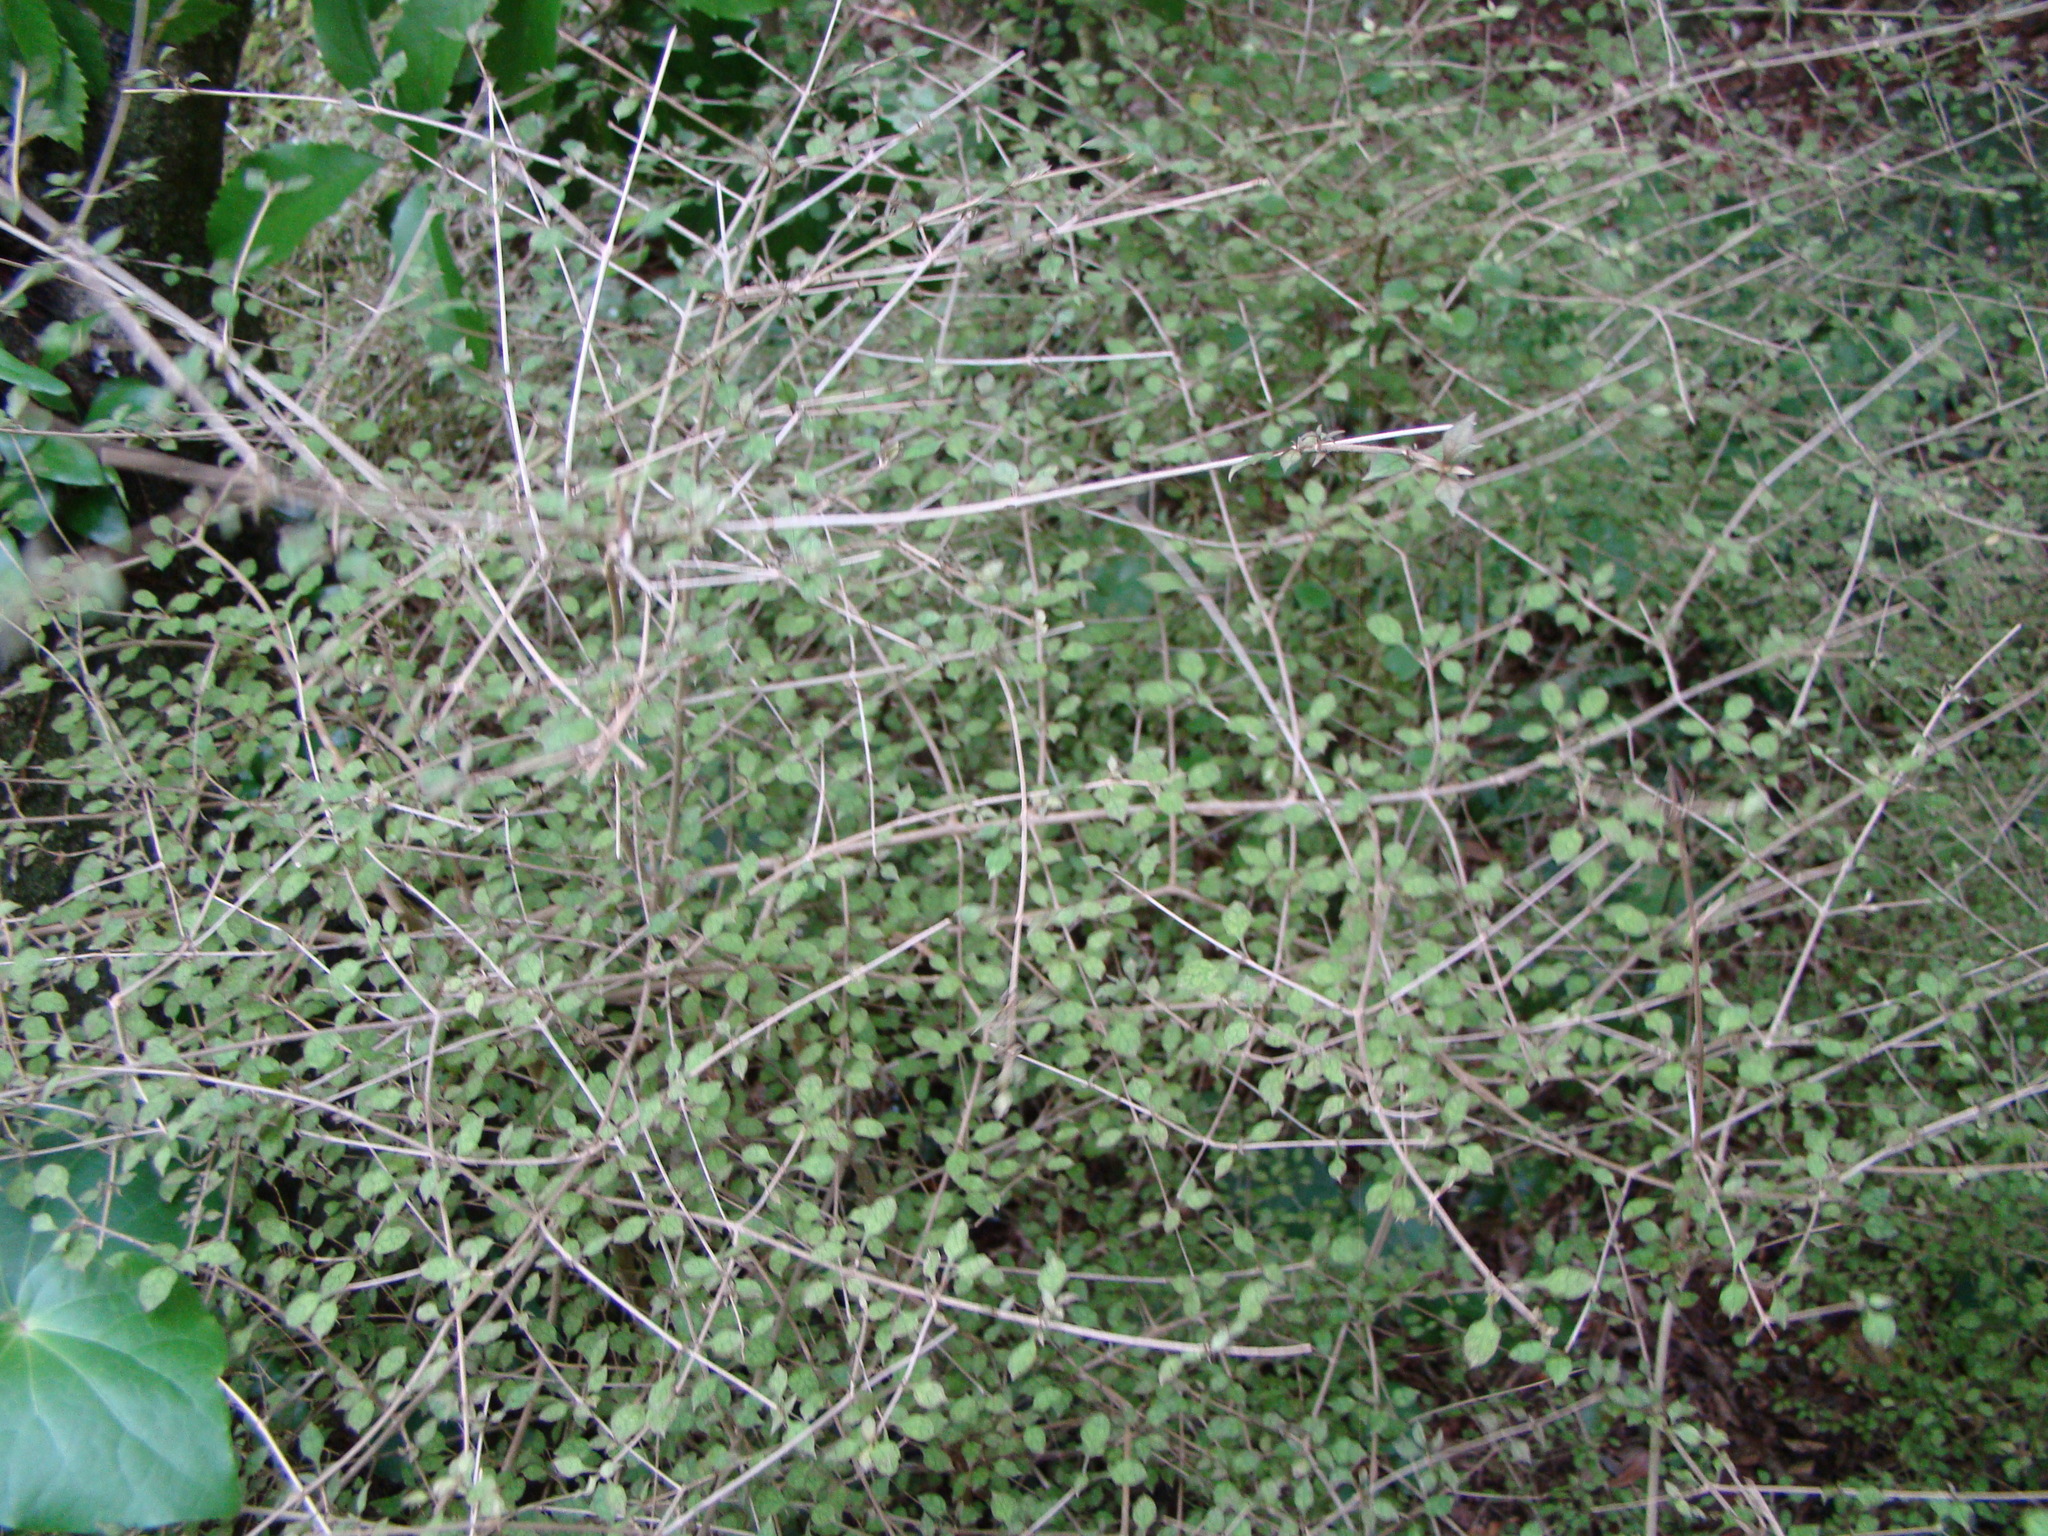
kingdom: Plantae
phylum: Tracheophyta
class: Magnoliopsida
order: Gentianales
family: Rubiaceae
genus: Coprosma
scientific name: Coprosma areolata
